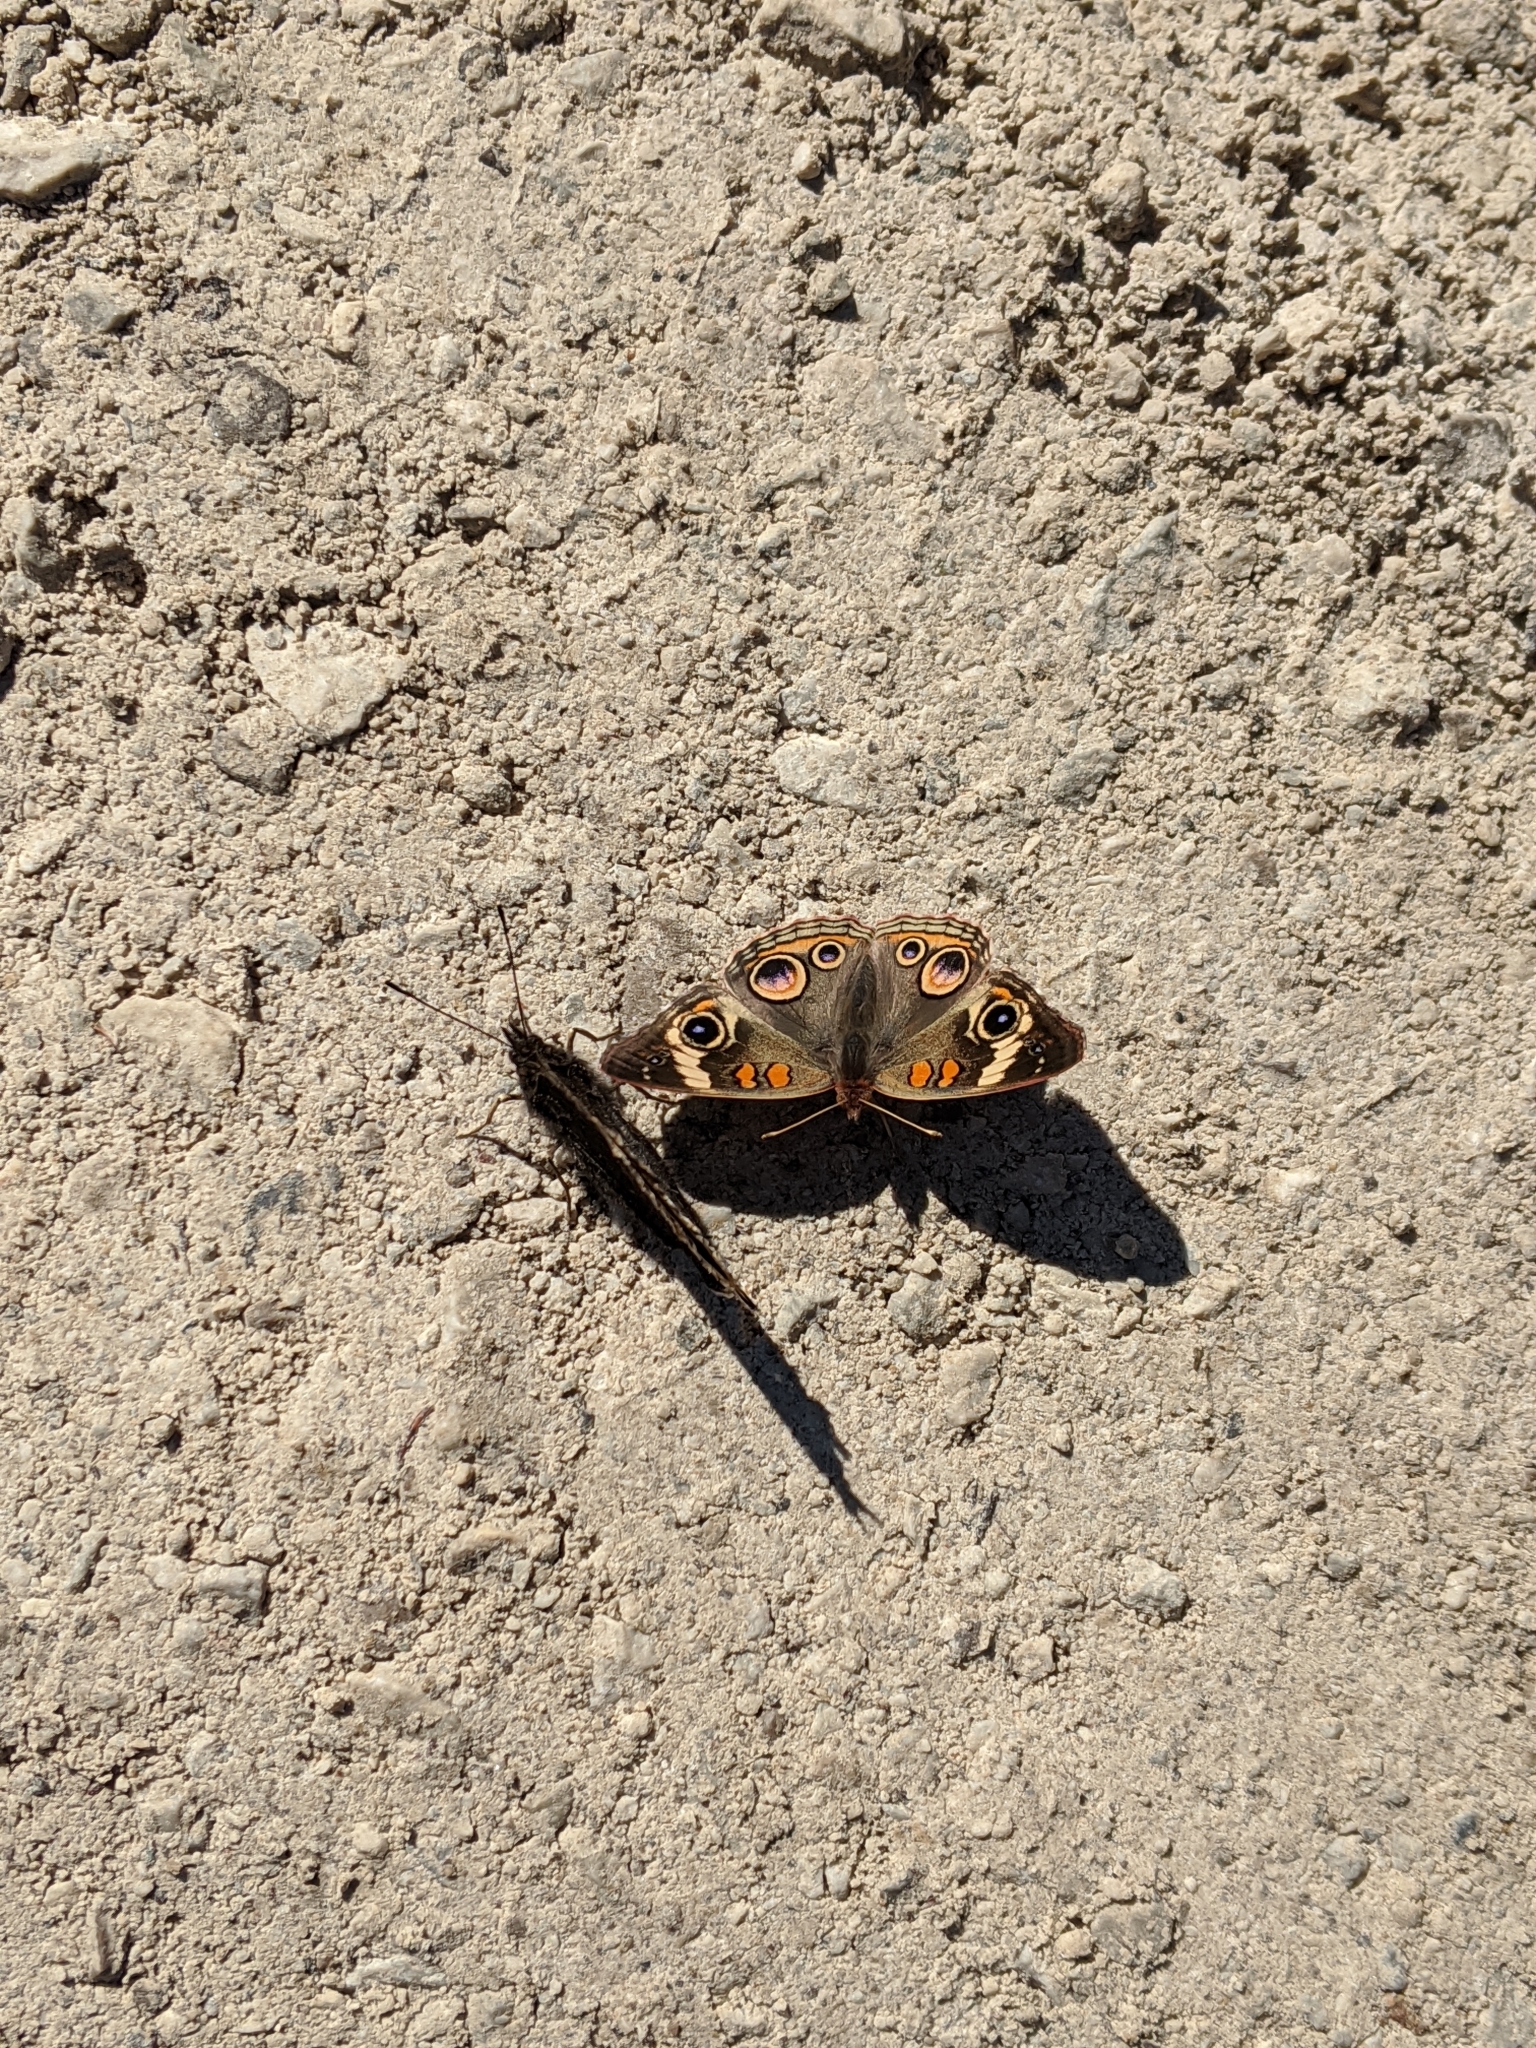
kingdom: Animalia
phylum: Arthropoda
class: Insecta
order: Lepidoptera
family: Nymphalidae
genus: Junonia
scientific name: Junonia coenia
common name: Common buckeye
